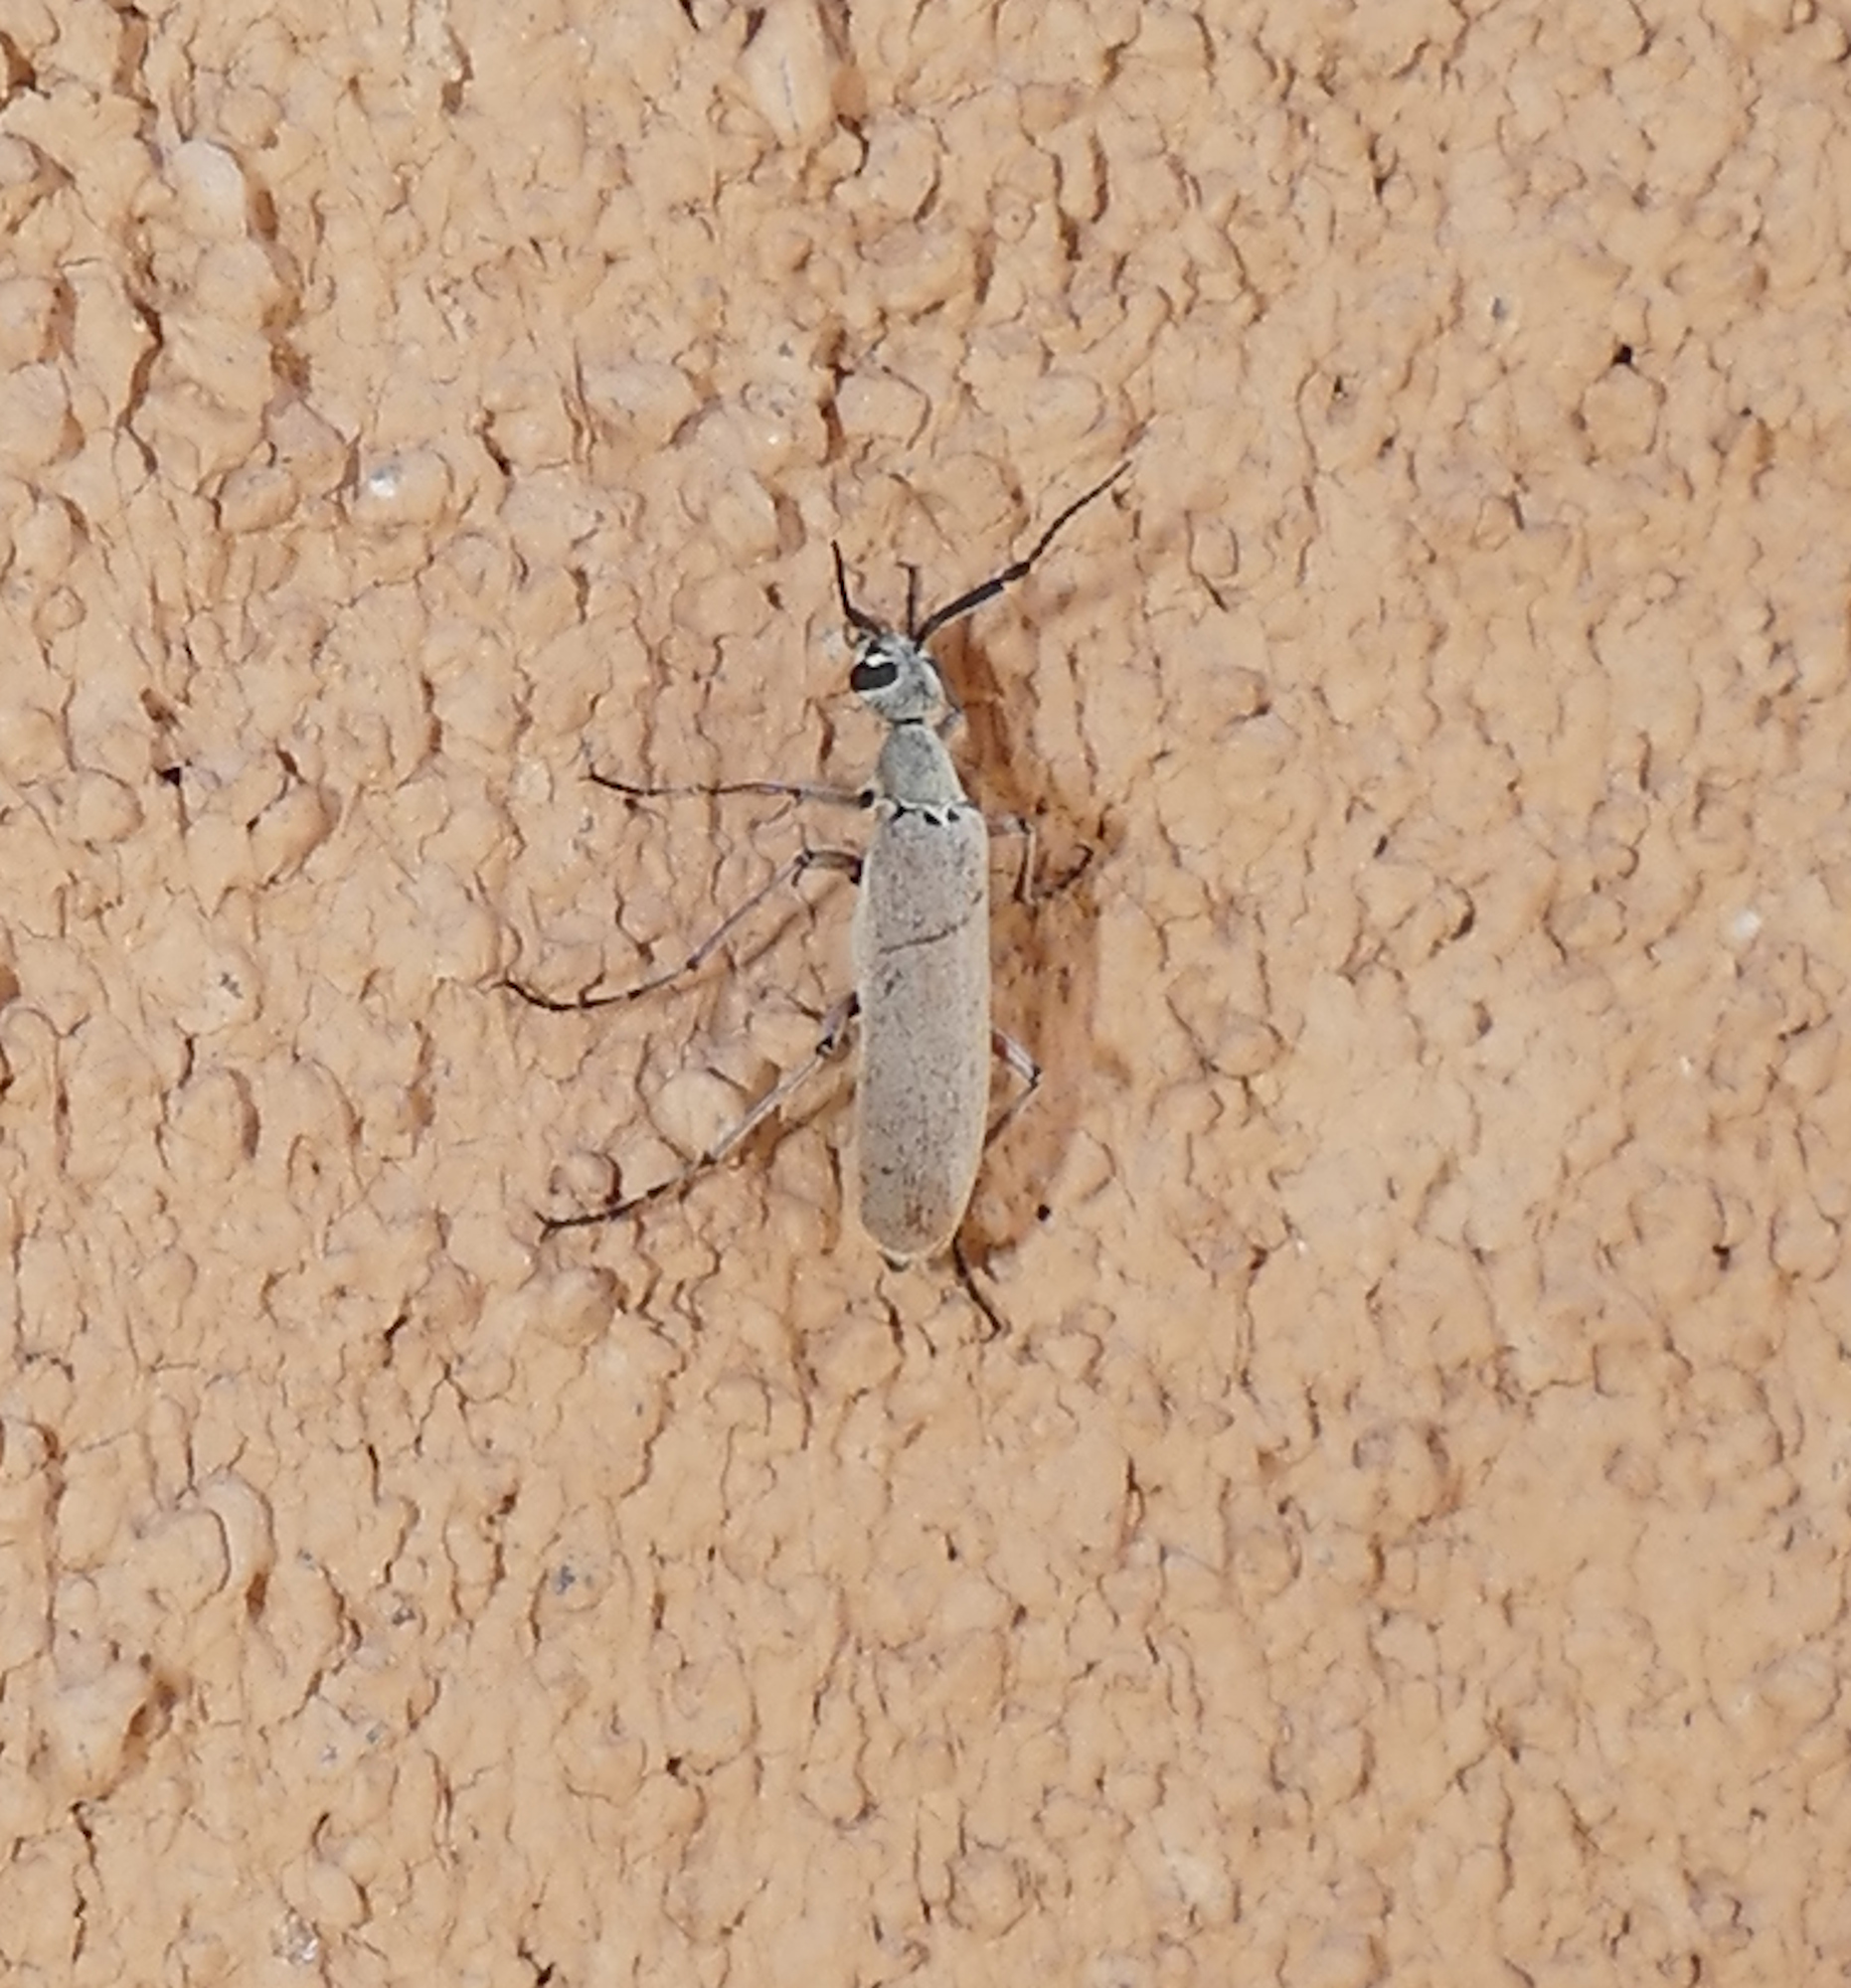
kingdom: Animalia
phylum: Arthropoda
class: Insecta
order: Coleoptera
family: Meloidae
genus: Epicauta
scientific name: Epicauta polingi
